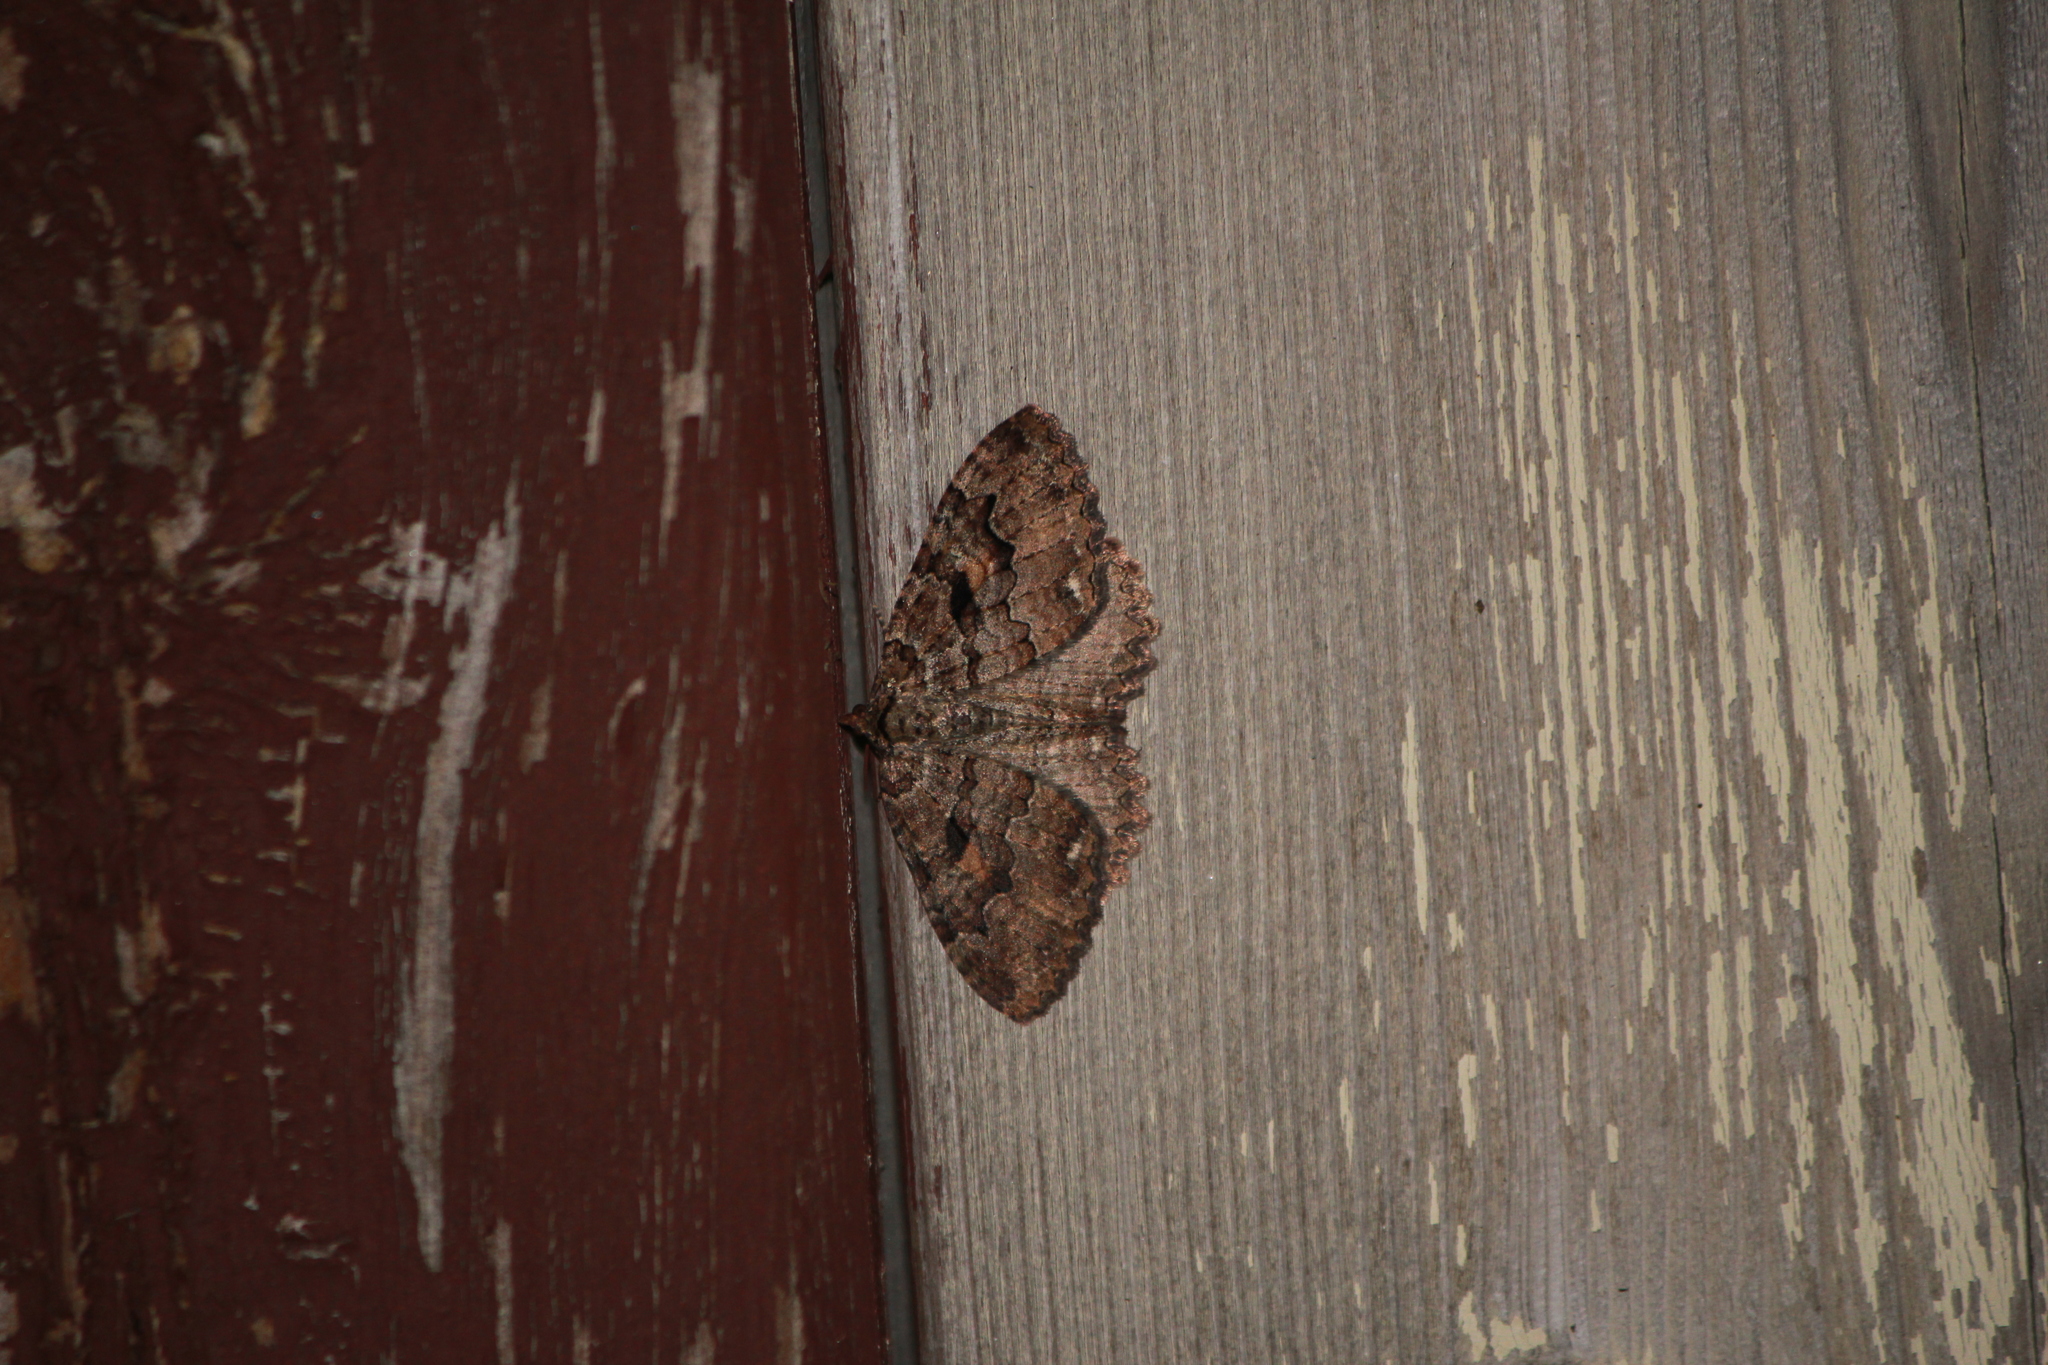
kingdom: Animalia
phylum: Arthropoda
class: Insecta
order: Lepidoptera
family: Geometridae
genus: Triphosa
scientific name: Triphosa haesitata
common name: Tissue moth
